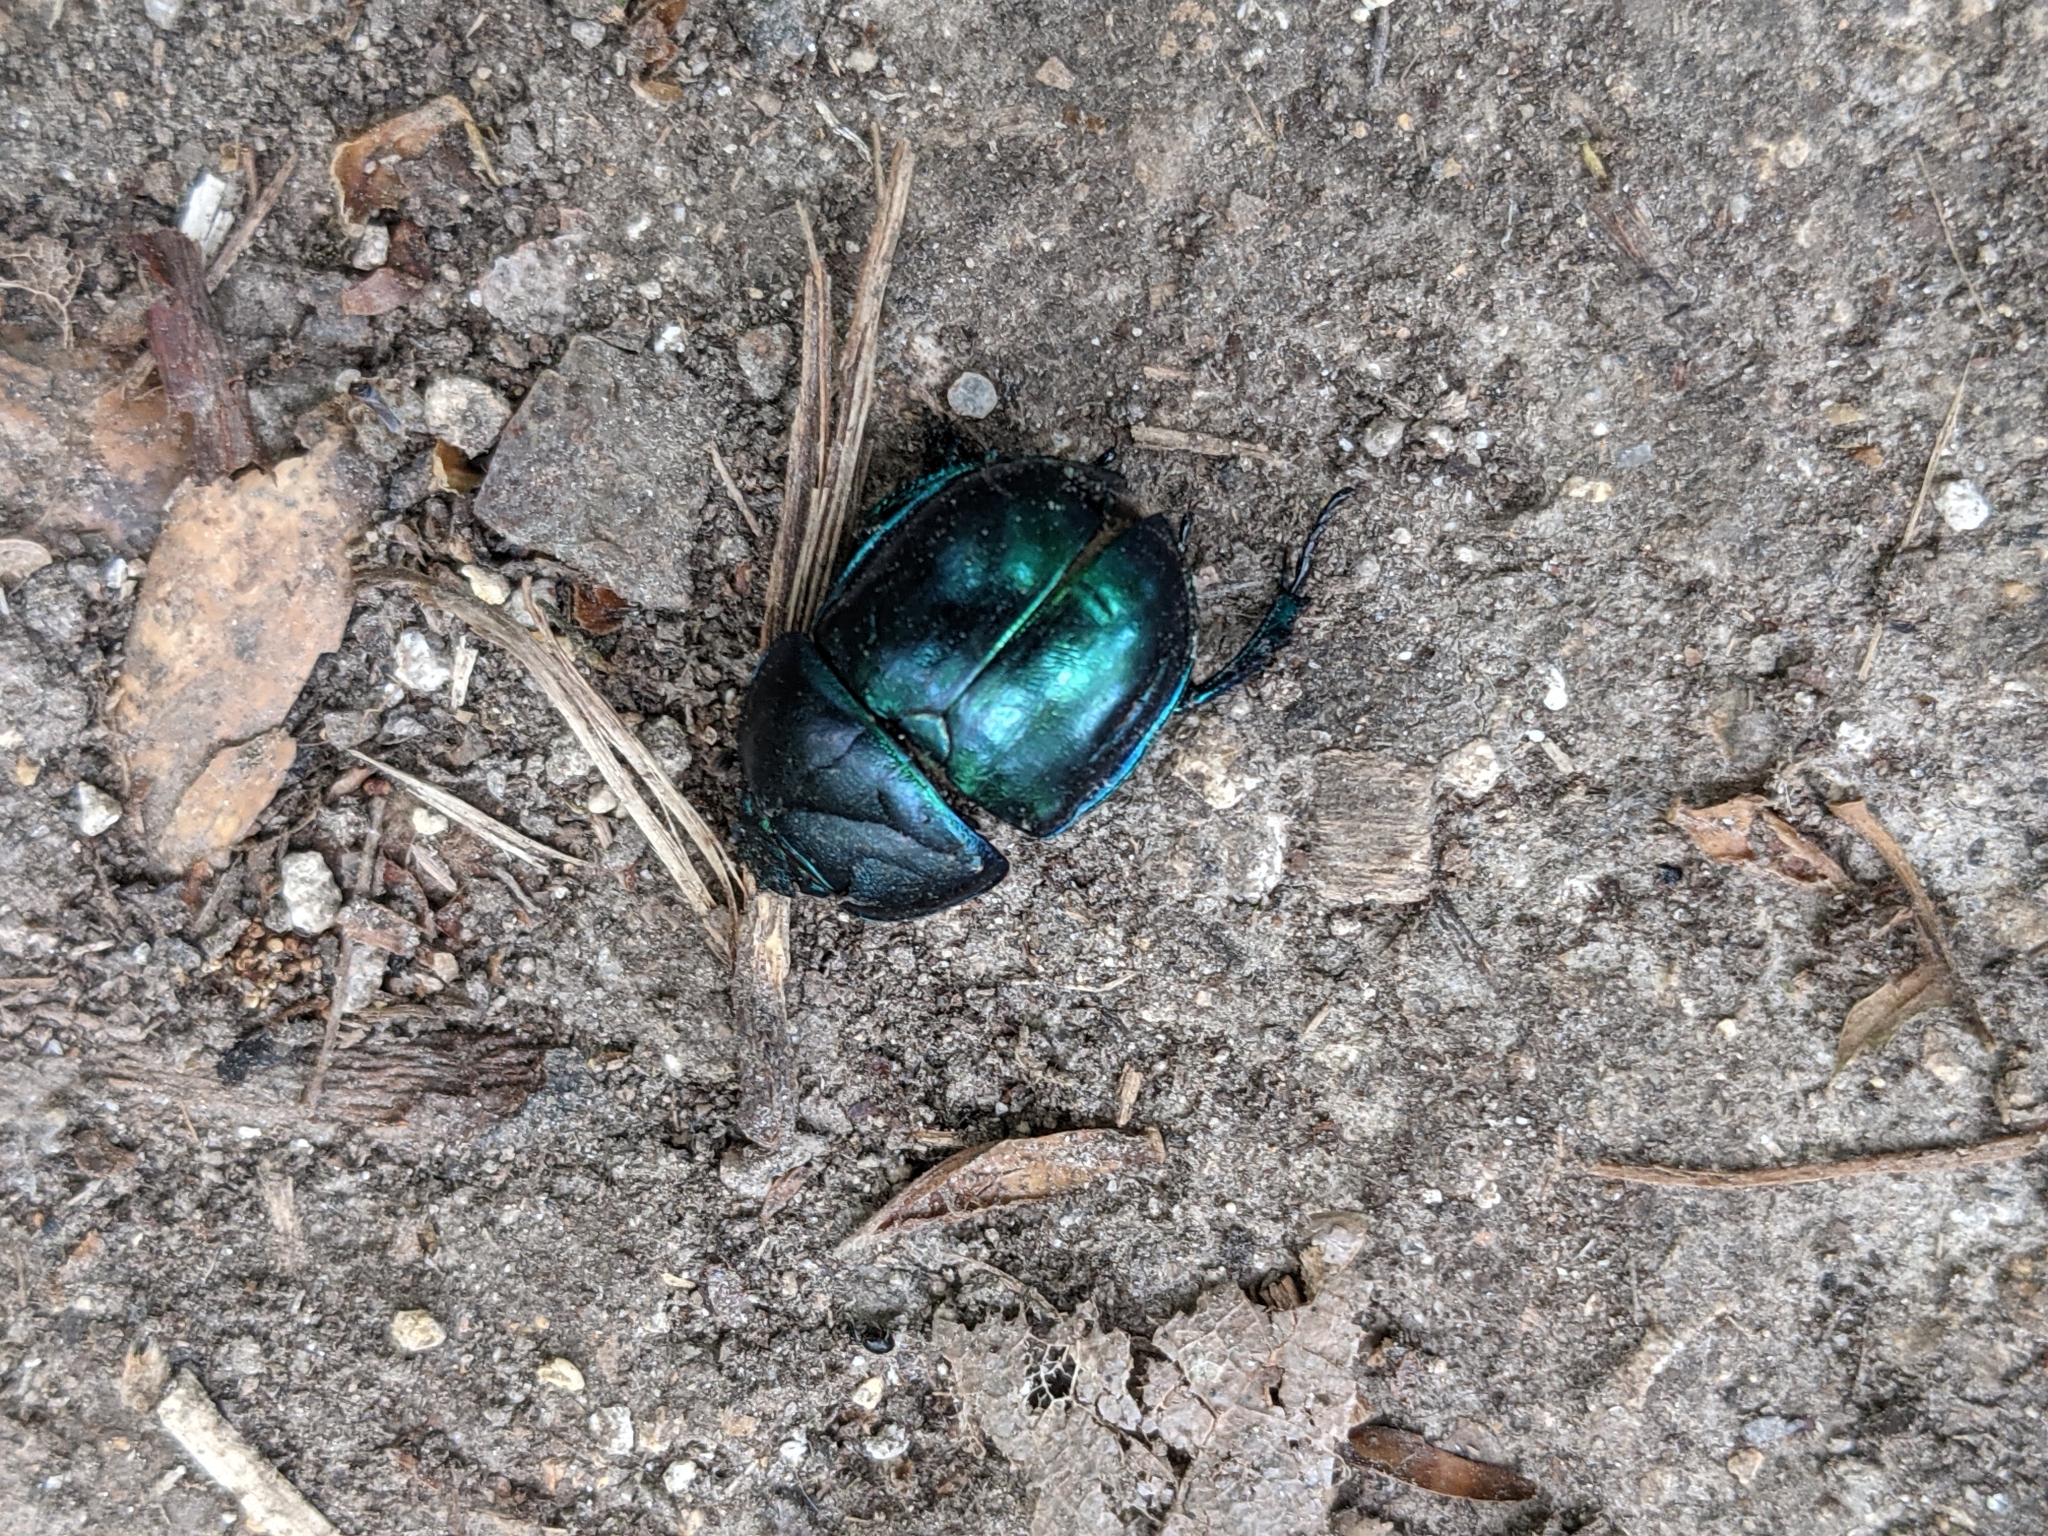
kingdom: Animalia
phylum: Arthropoda
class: Insecta
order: Coleoptera
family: Geotrupidae
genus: Trypocopris
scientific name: Trypocopris vernalis
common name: Spring dumbledor
